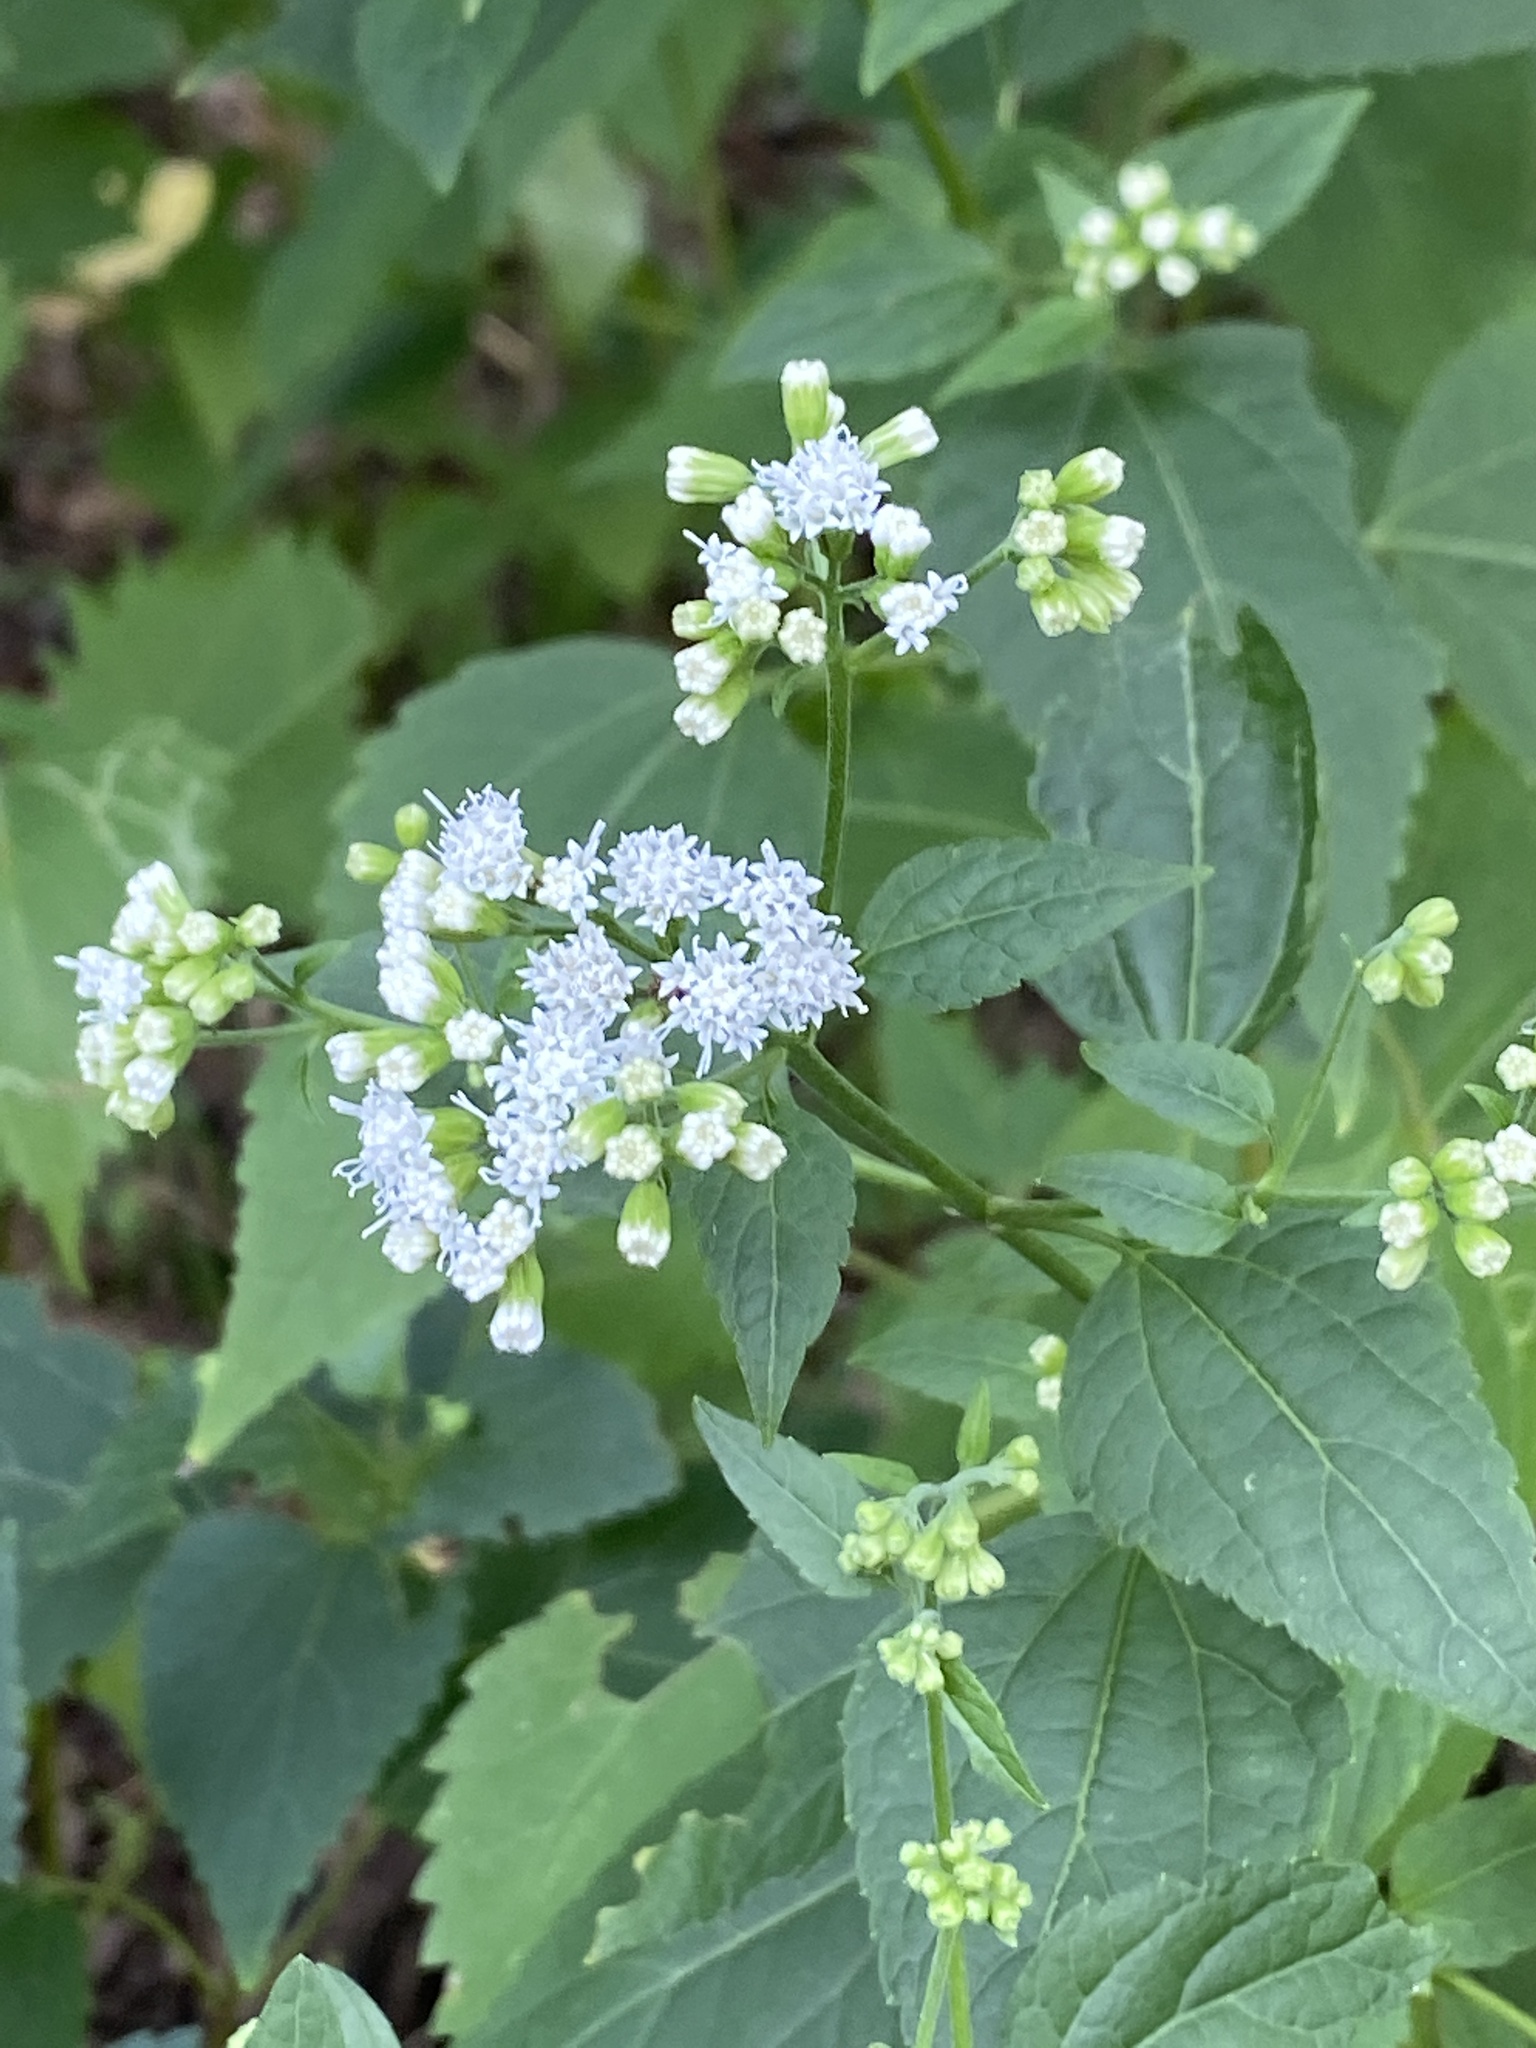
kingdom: Plantae
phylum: Tracheophyta
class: Magnoliopsida
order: Asterales
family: Asteraceae
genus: Ageratina
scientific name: Ageratina altissima
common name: White snakeroot
